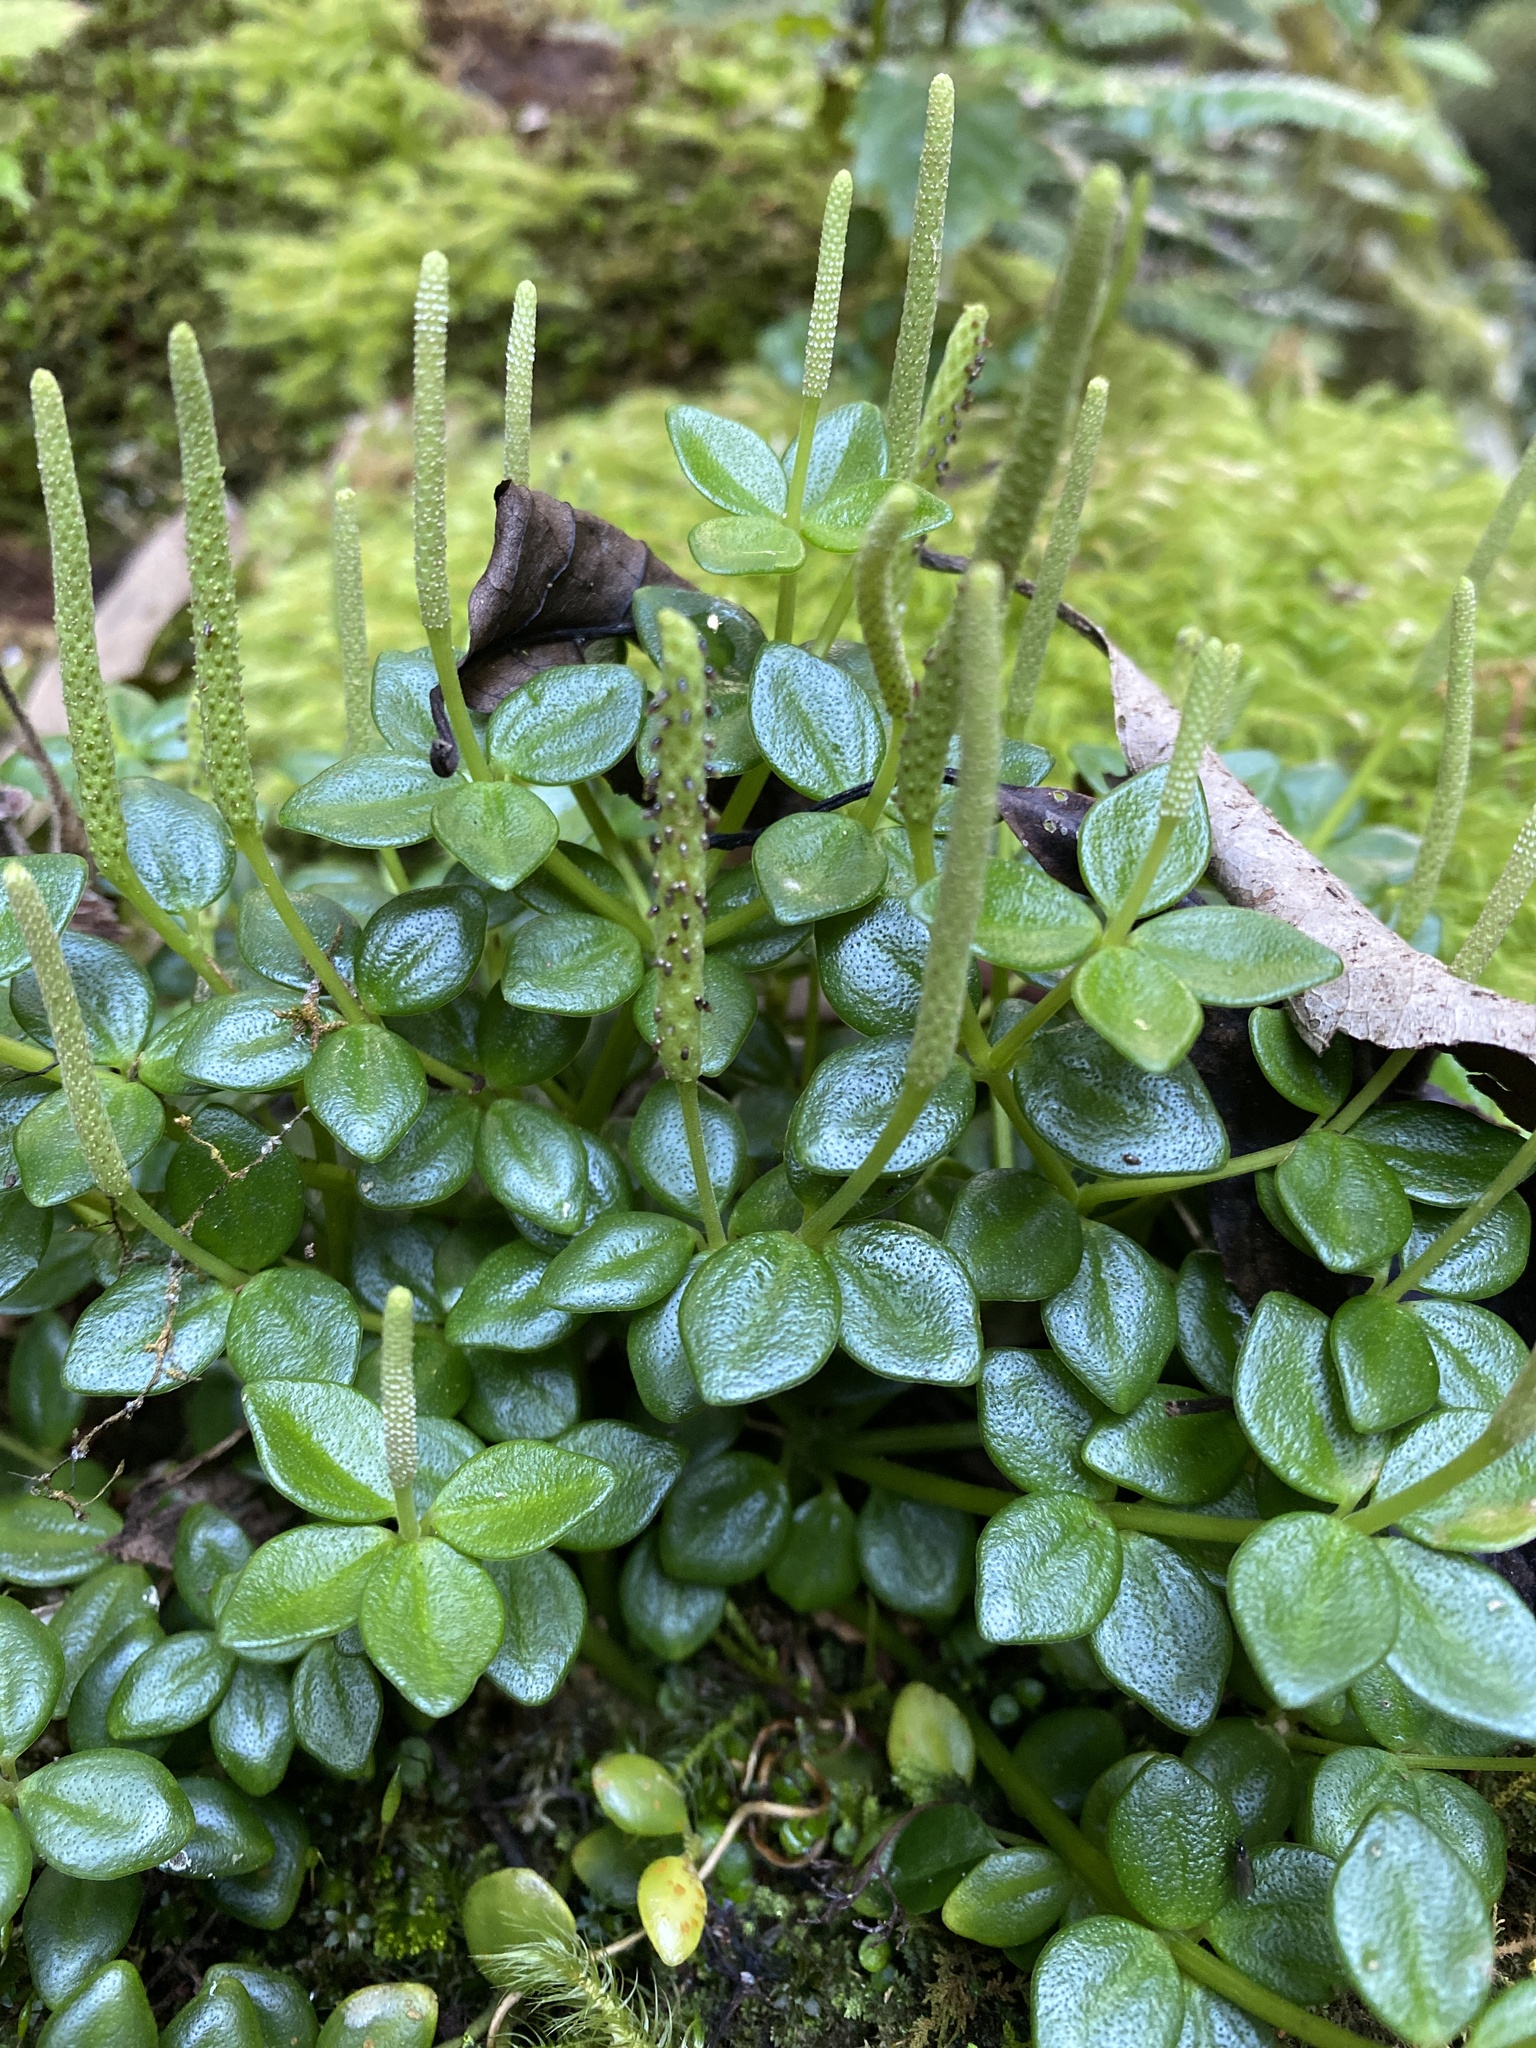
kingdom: Plantae
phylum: Tracheophyta
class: Magnoliopsida
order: Piperales
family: Piperaceae
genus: Peperomia
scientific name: Peperomia tetraphylla
